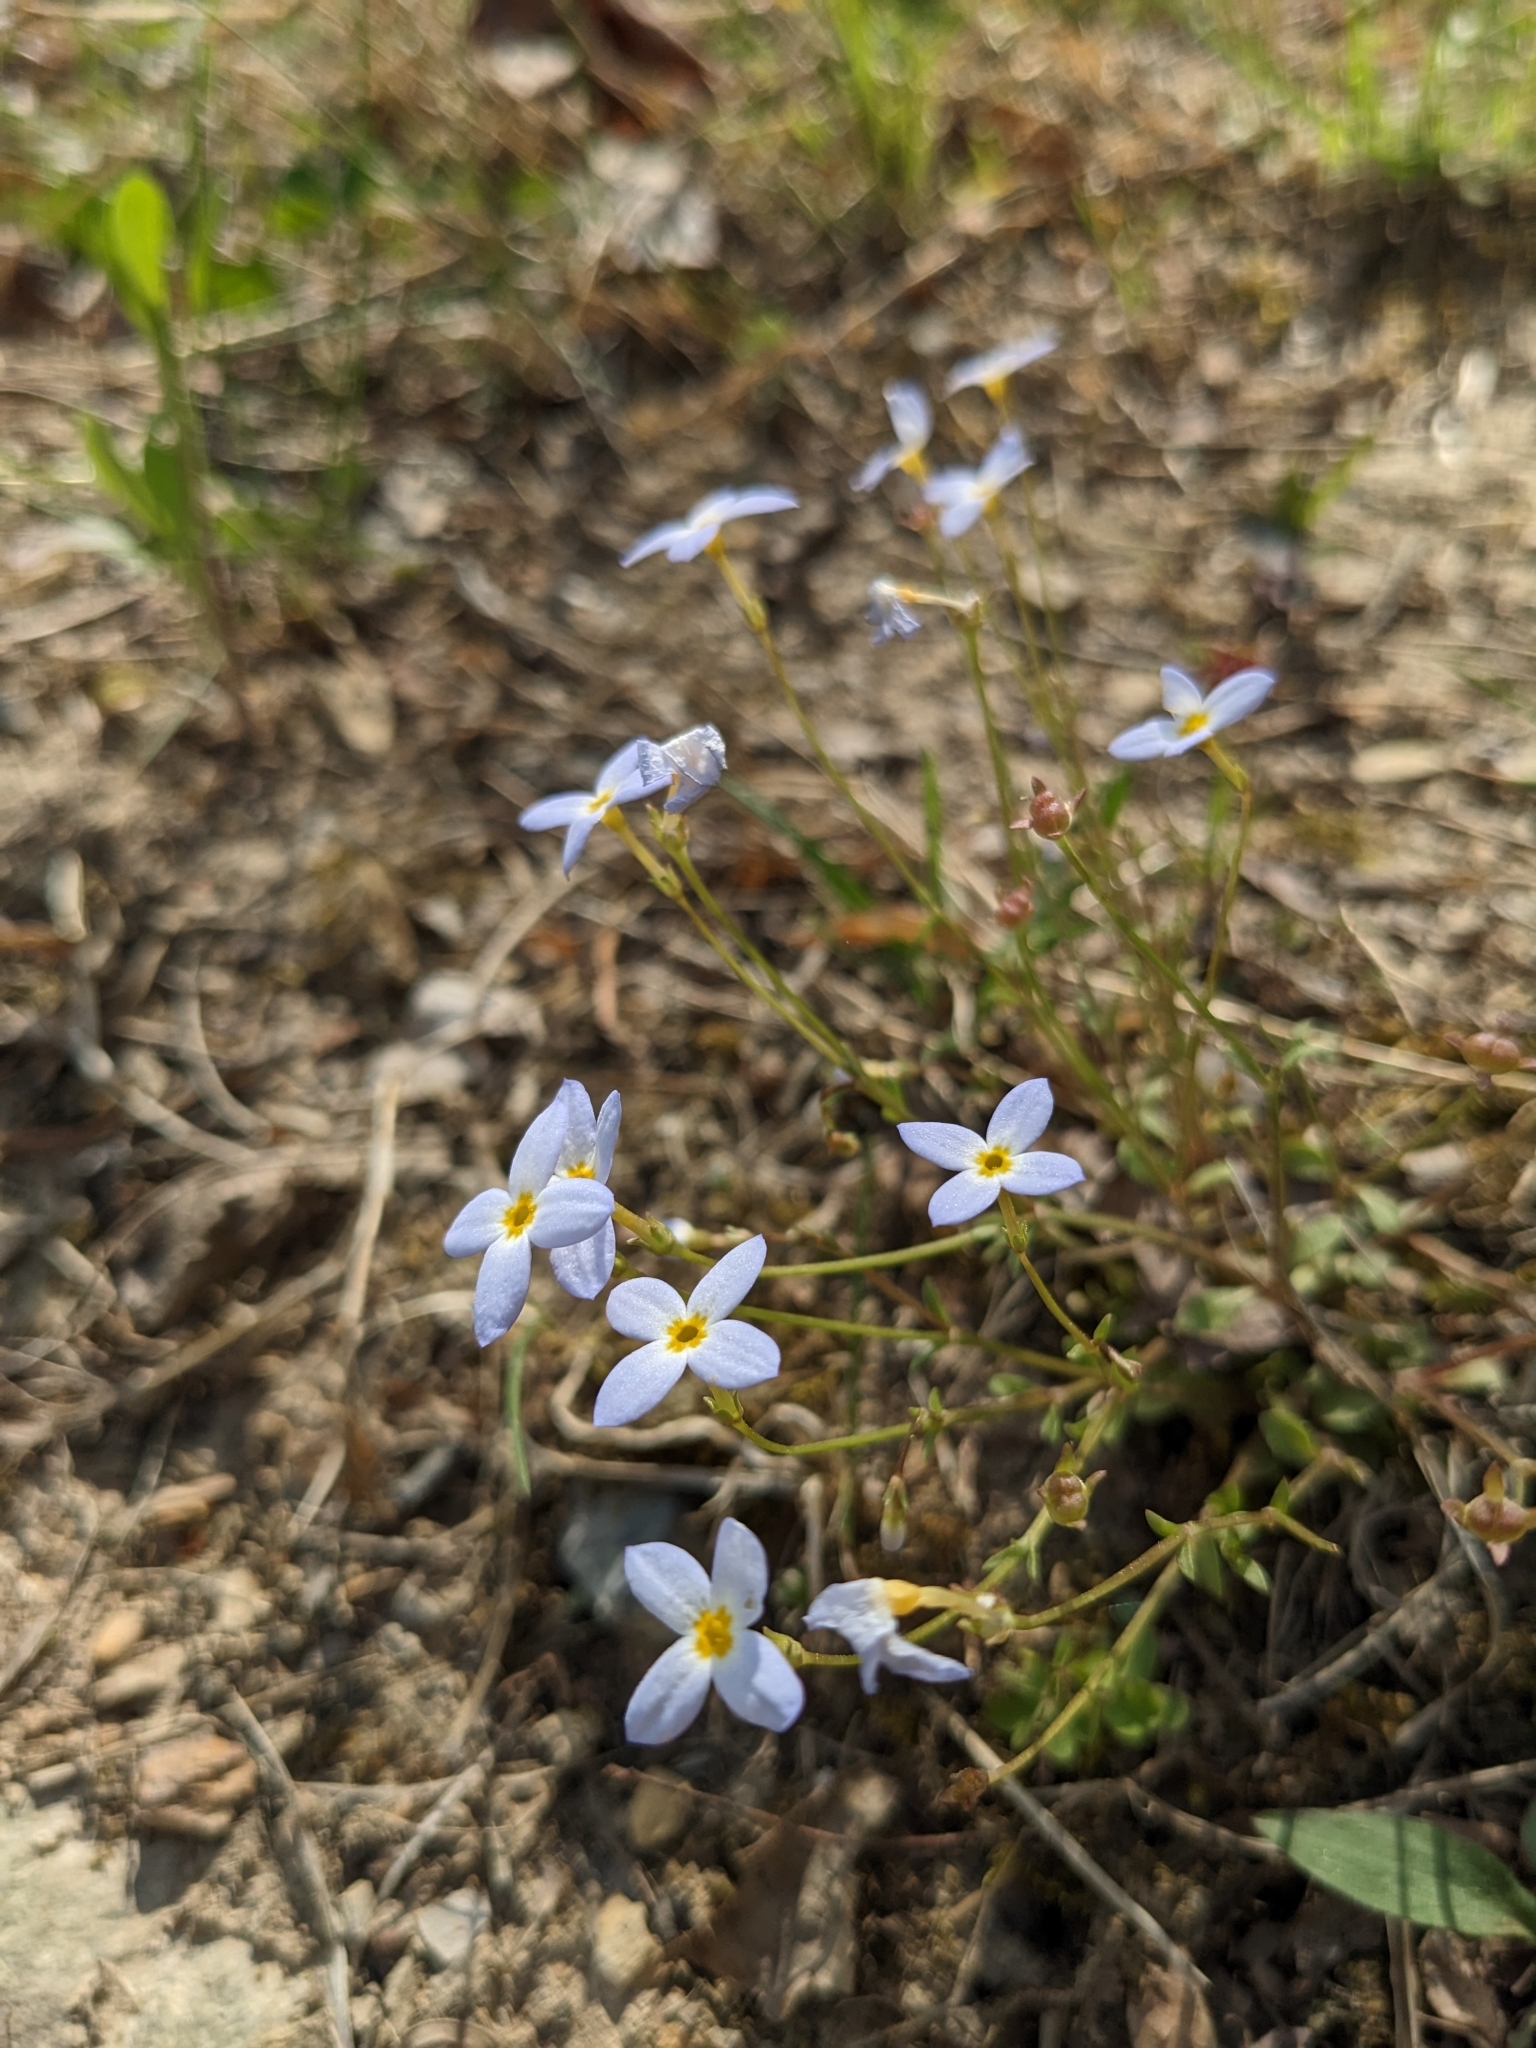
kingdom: Plantae
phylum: Tracheophyta
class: Magnoliopsida
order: Gentianales
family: Rubiaceae
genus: Houstonia
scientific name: Houstonia caerulea
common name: Bluets
